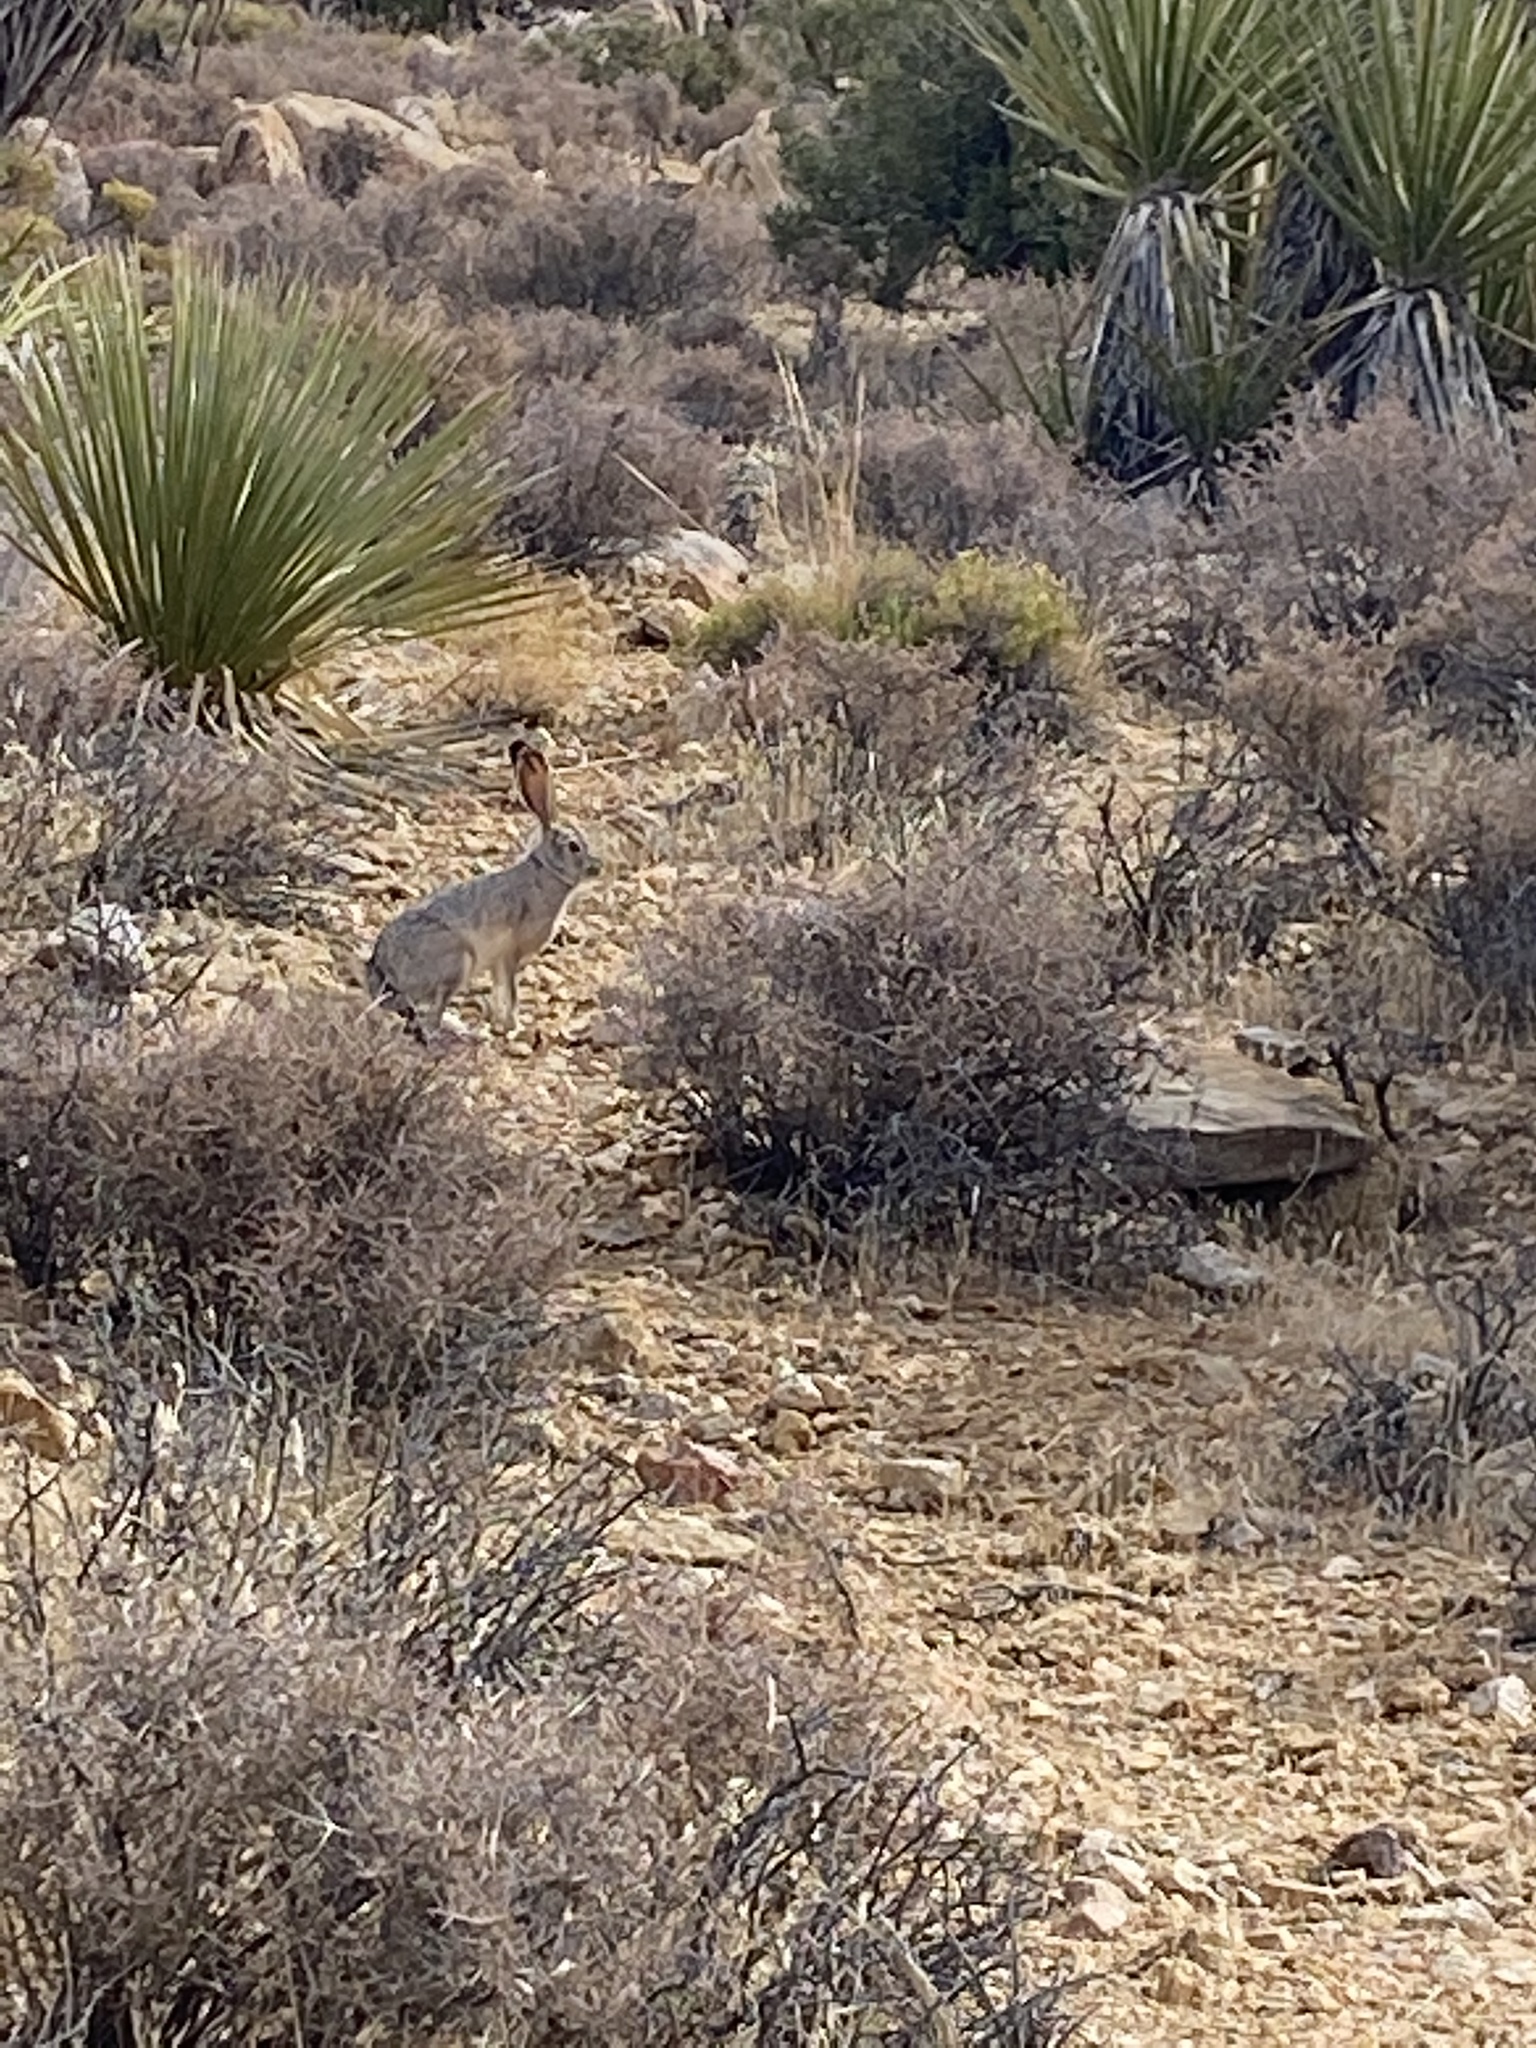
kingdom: Animalia
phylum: Chordata
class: Mammalia
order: Lagomorpha
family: Leporidae
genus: Lepus
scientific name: Lepus californicus
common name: Black-tailed jackrabbit
